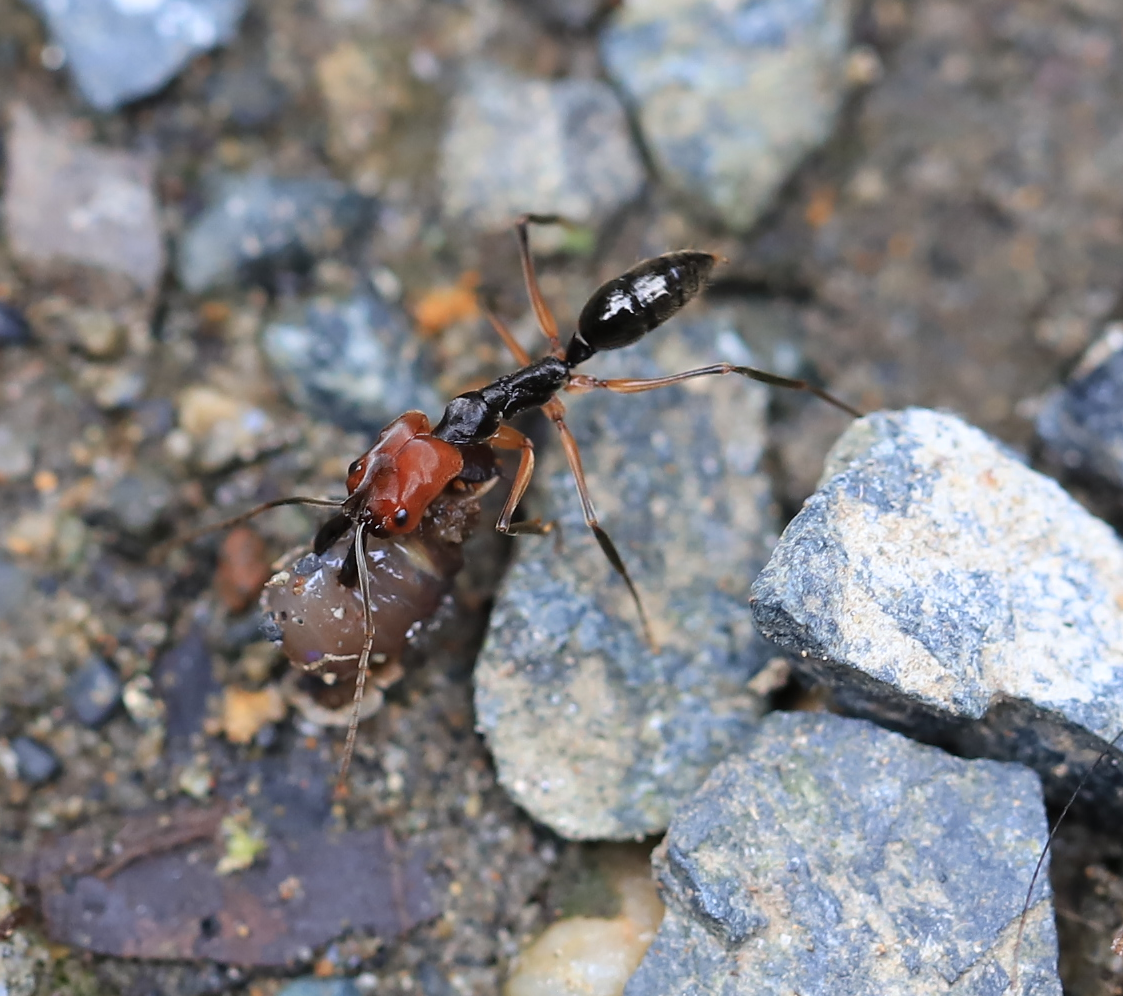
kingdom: Animalia
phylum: Arthropoda
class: Insecta
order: Hymenoptera
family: Formicidae
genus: Odontomachus
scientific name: Odontomachus erythrocephalus
